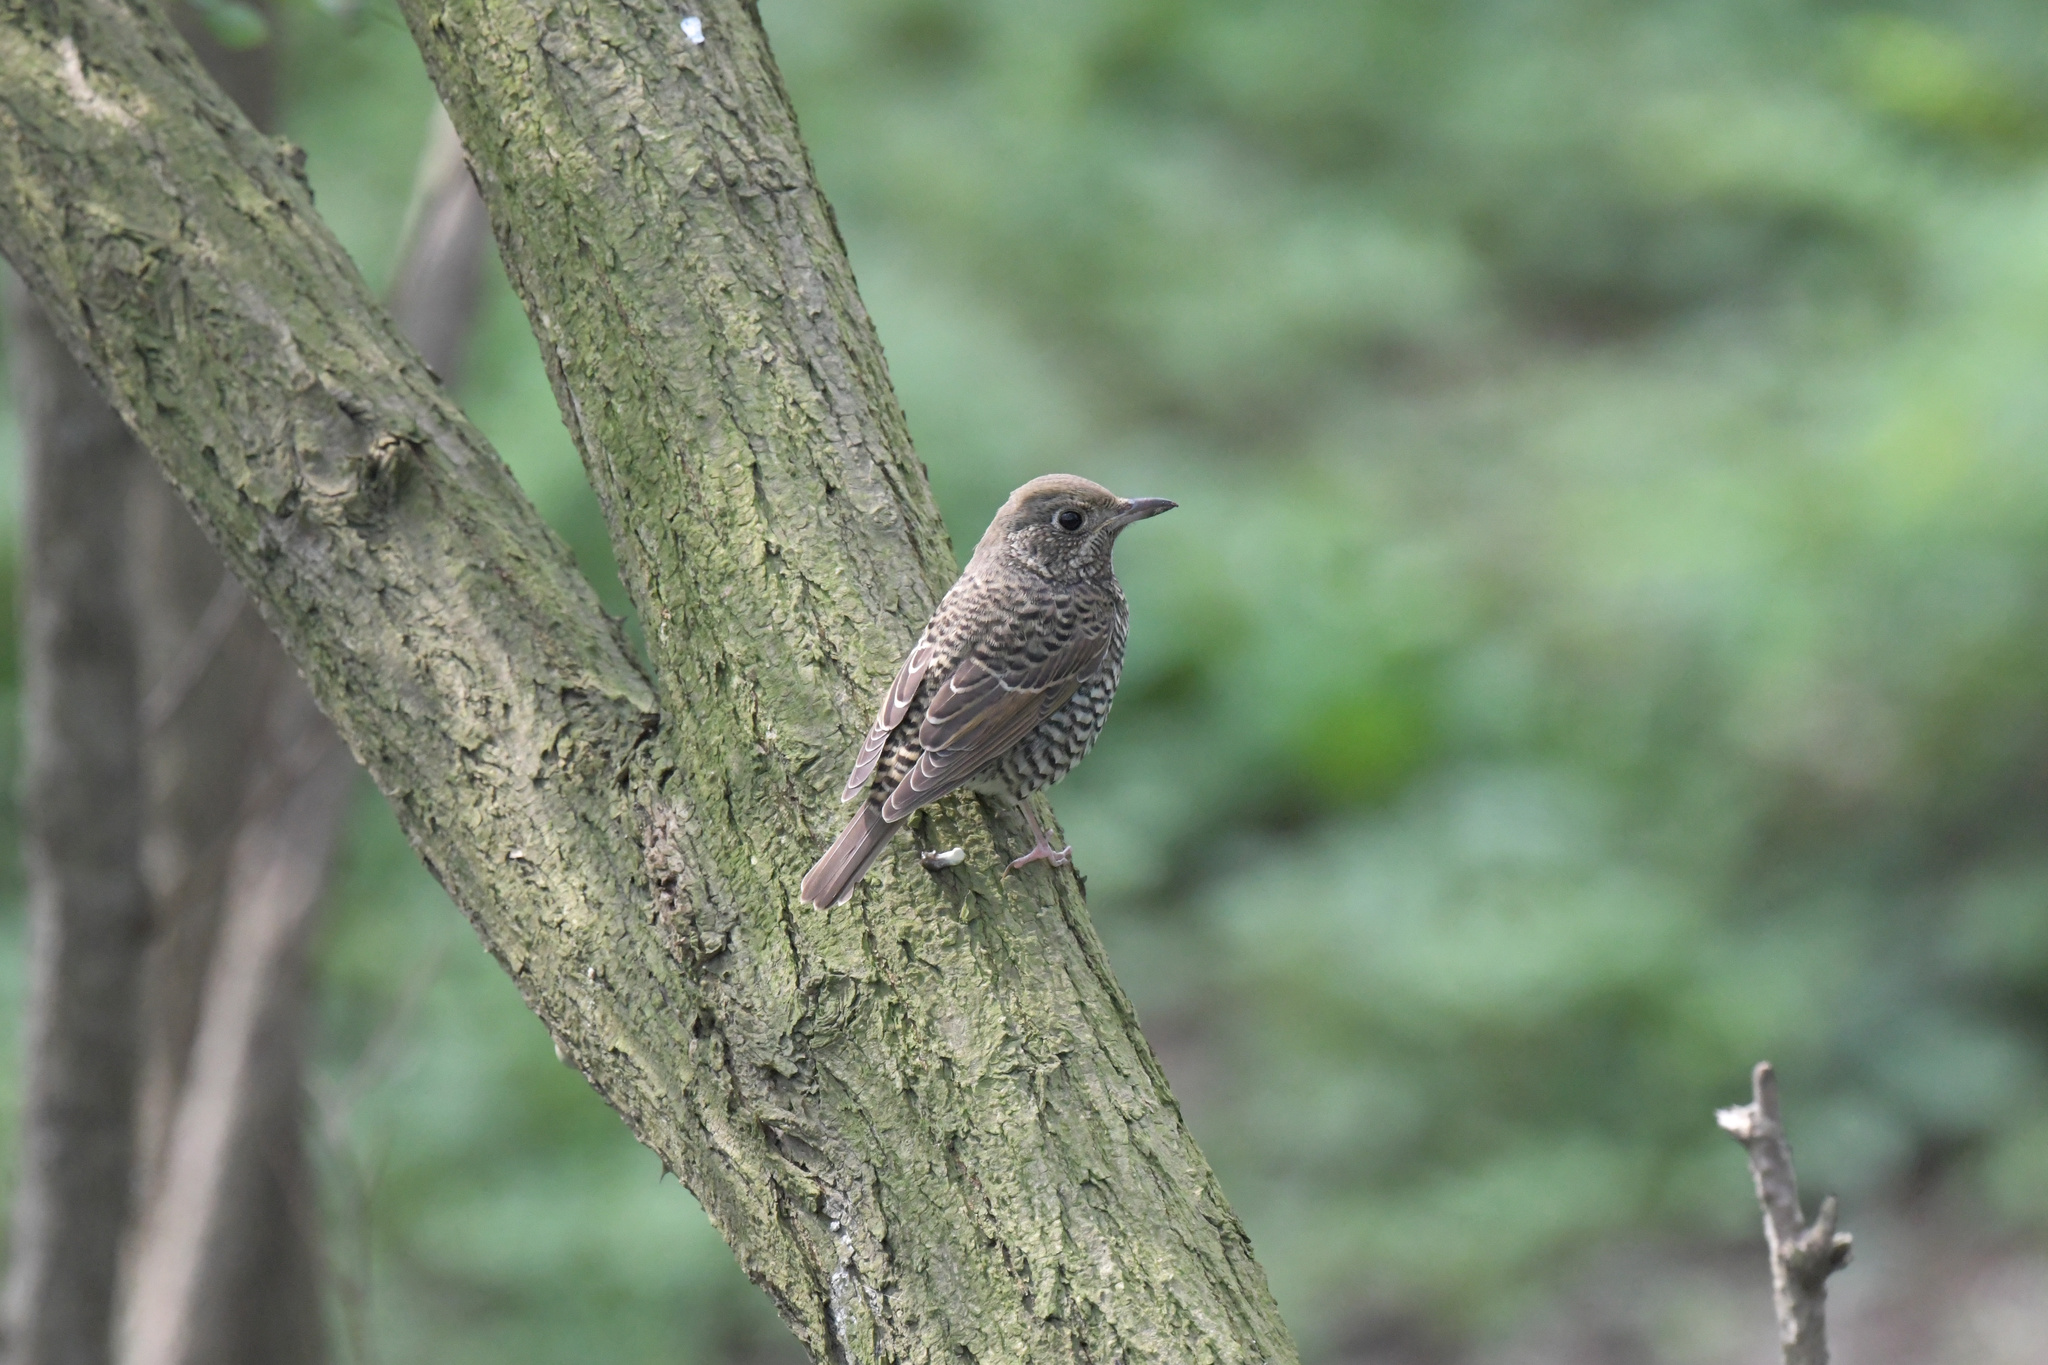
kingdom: Animalia
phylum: Chordata
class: Aves
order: Passeriformes
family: Muscicapidae
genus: Monticola
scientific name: Monticola gularis
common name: White-throated rock thrush
